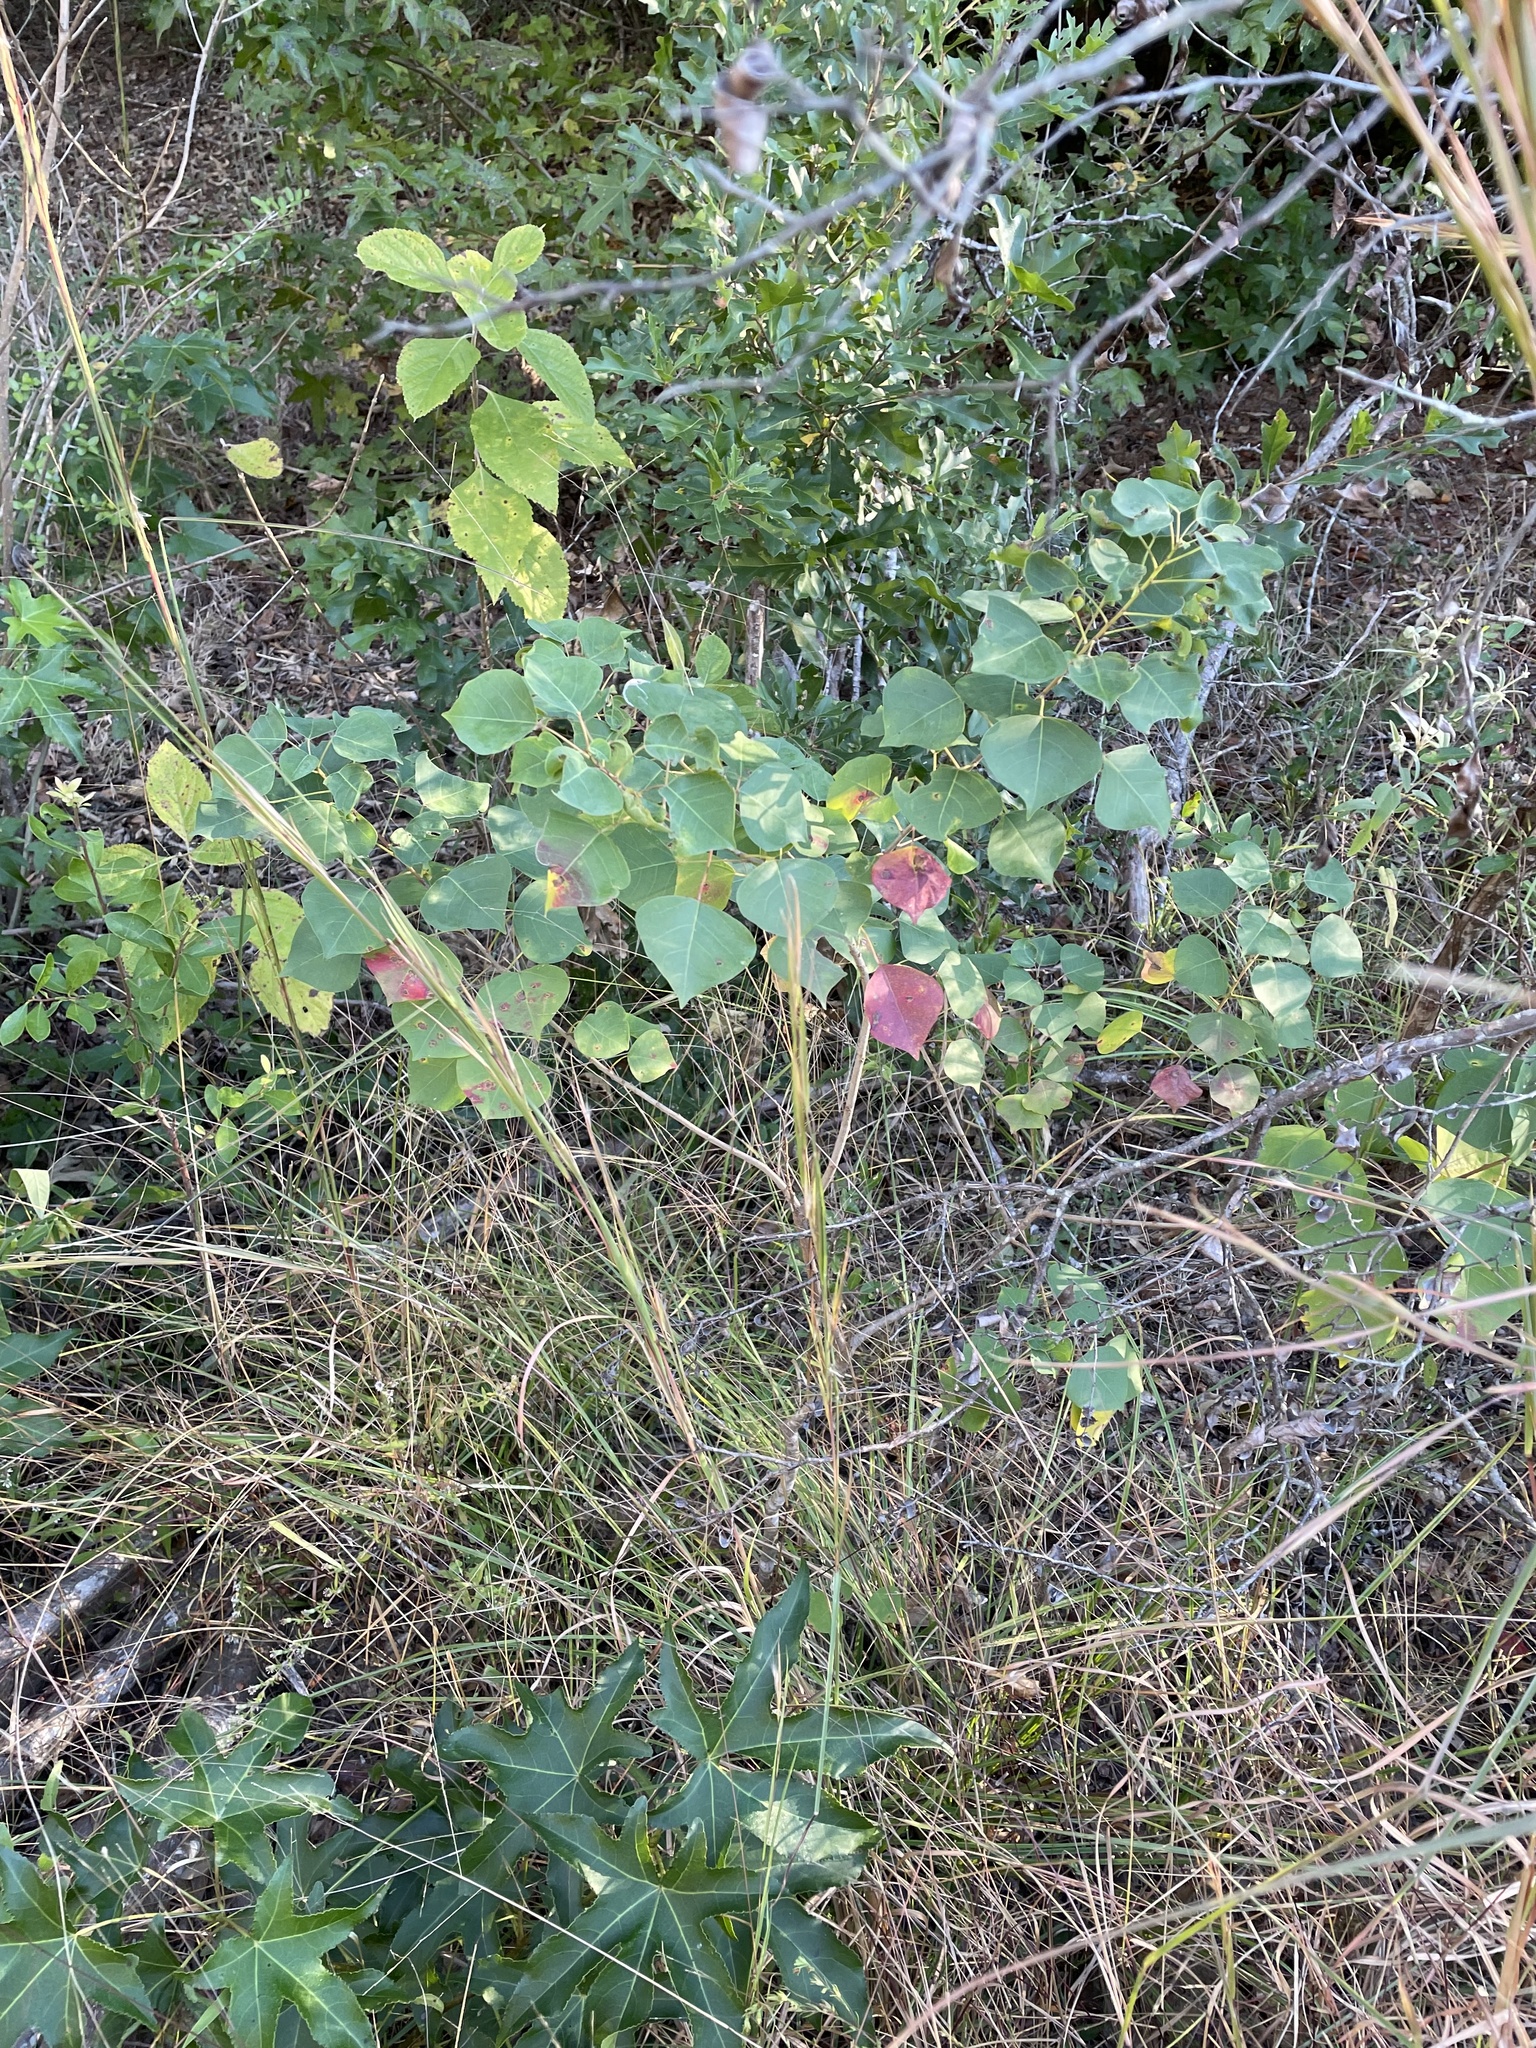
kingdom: Plantae
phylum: Tracheophyta
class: Magnoliopsida
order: Malpighiales
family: Euphorbiaceae
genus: Triadica
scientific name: Triadica sebifera
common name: Chinese tallow
